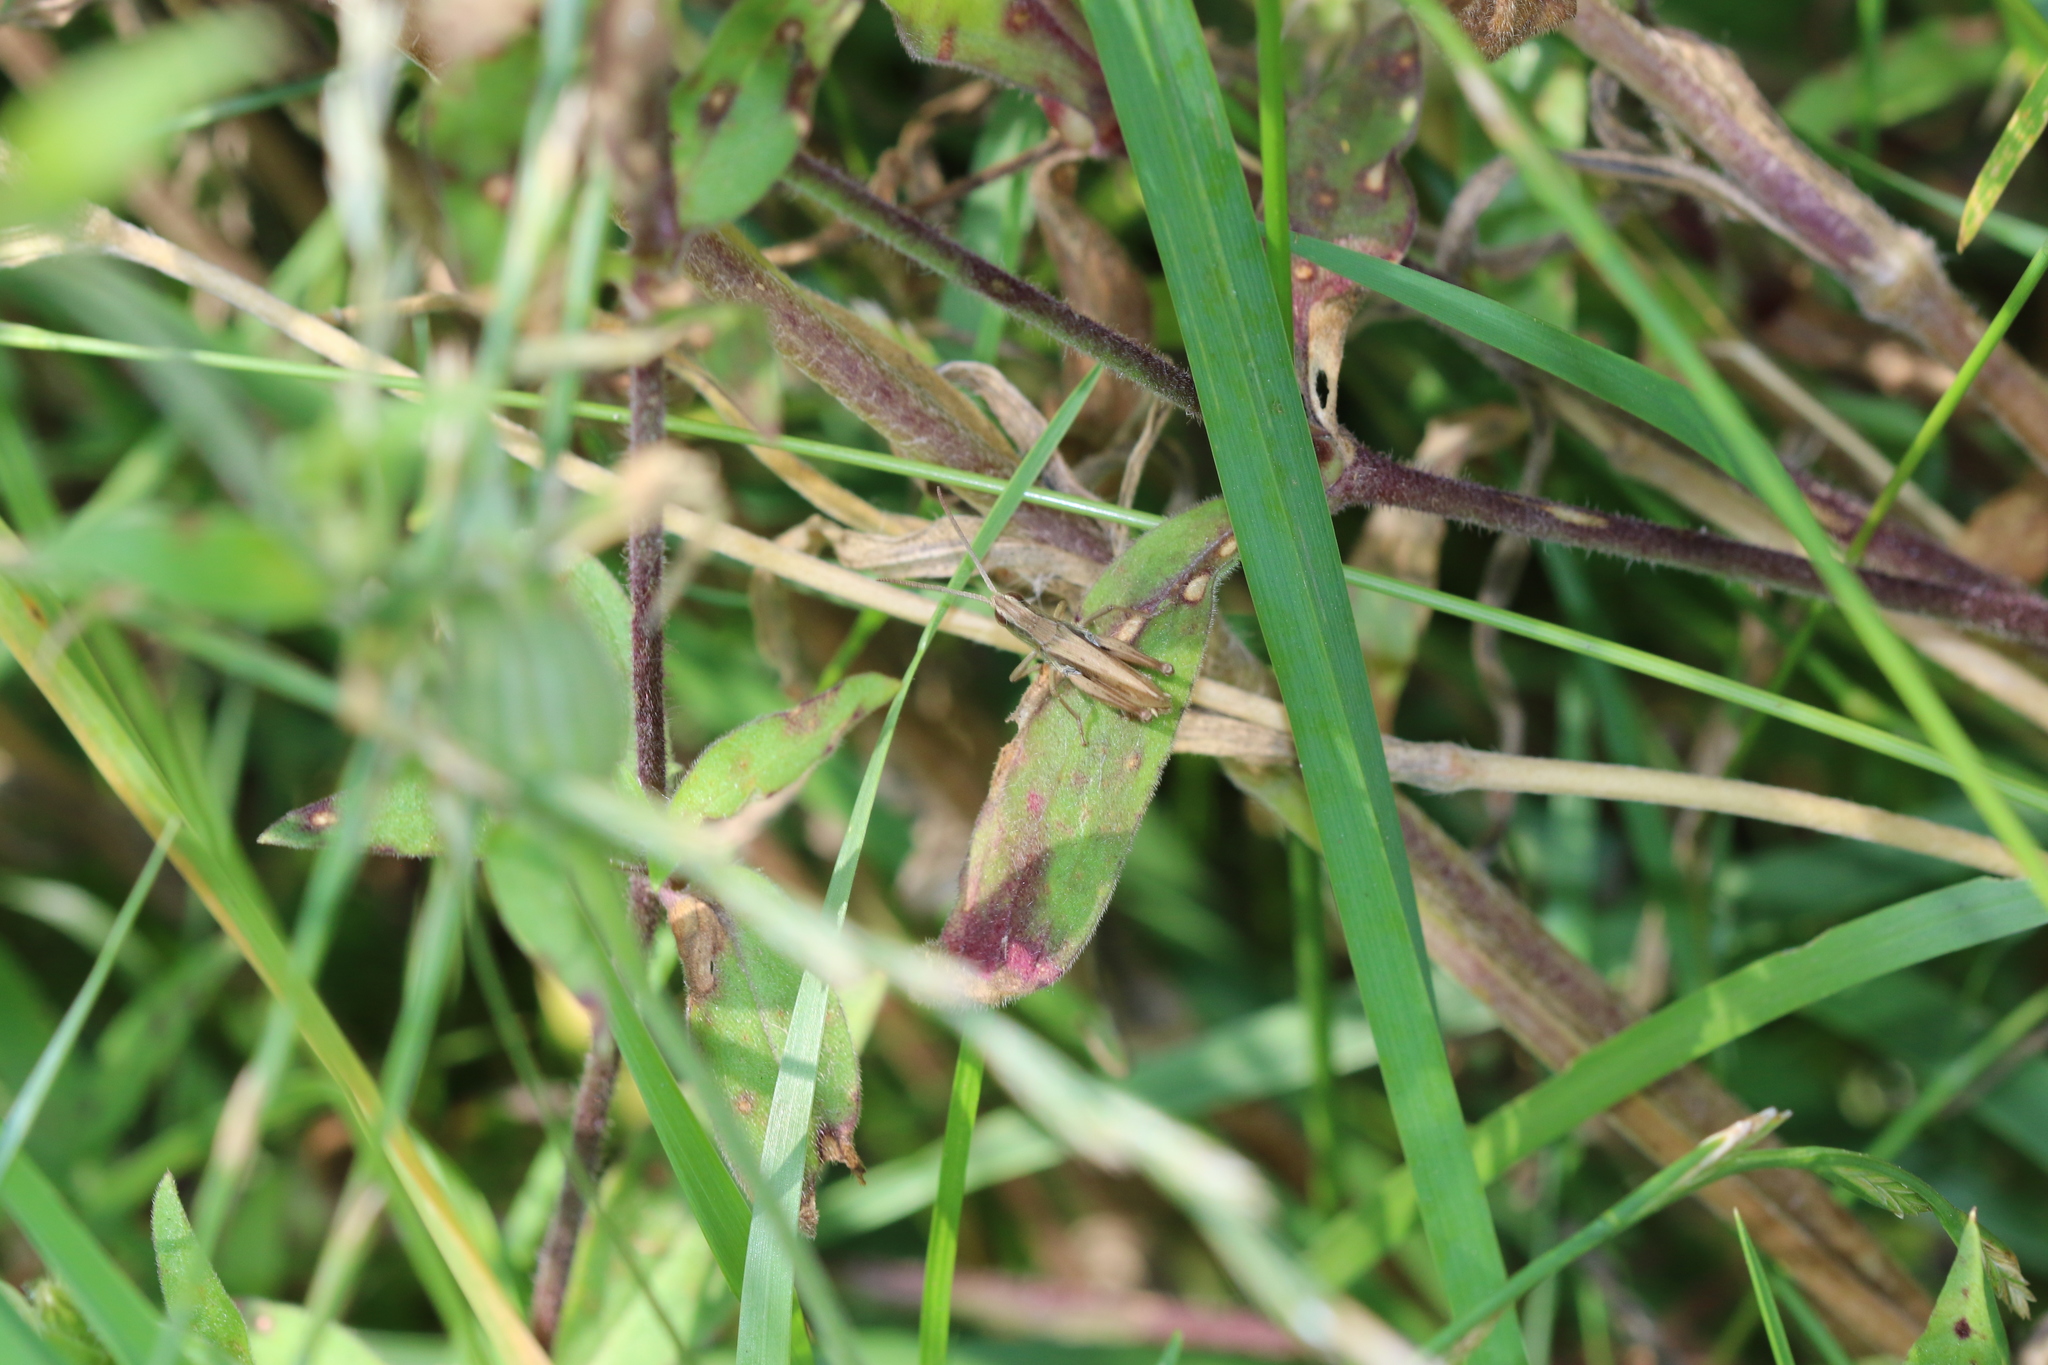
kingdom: Animalia
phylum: Arthropoda
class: Insecta
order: Orthoptera
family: Acrididae
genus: Pseudochorthippus
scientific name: Pseudochorthippus parallelus
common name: Meadow grasshopper
